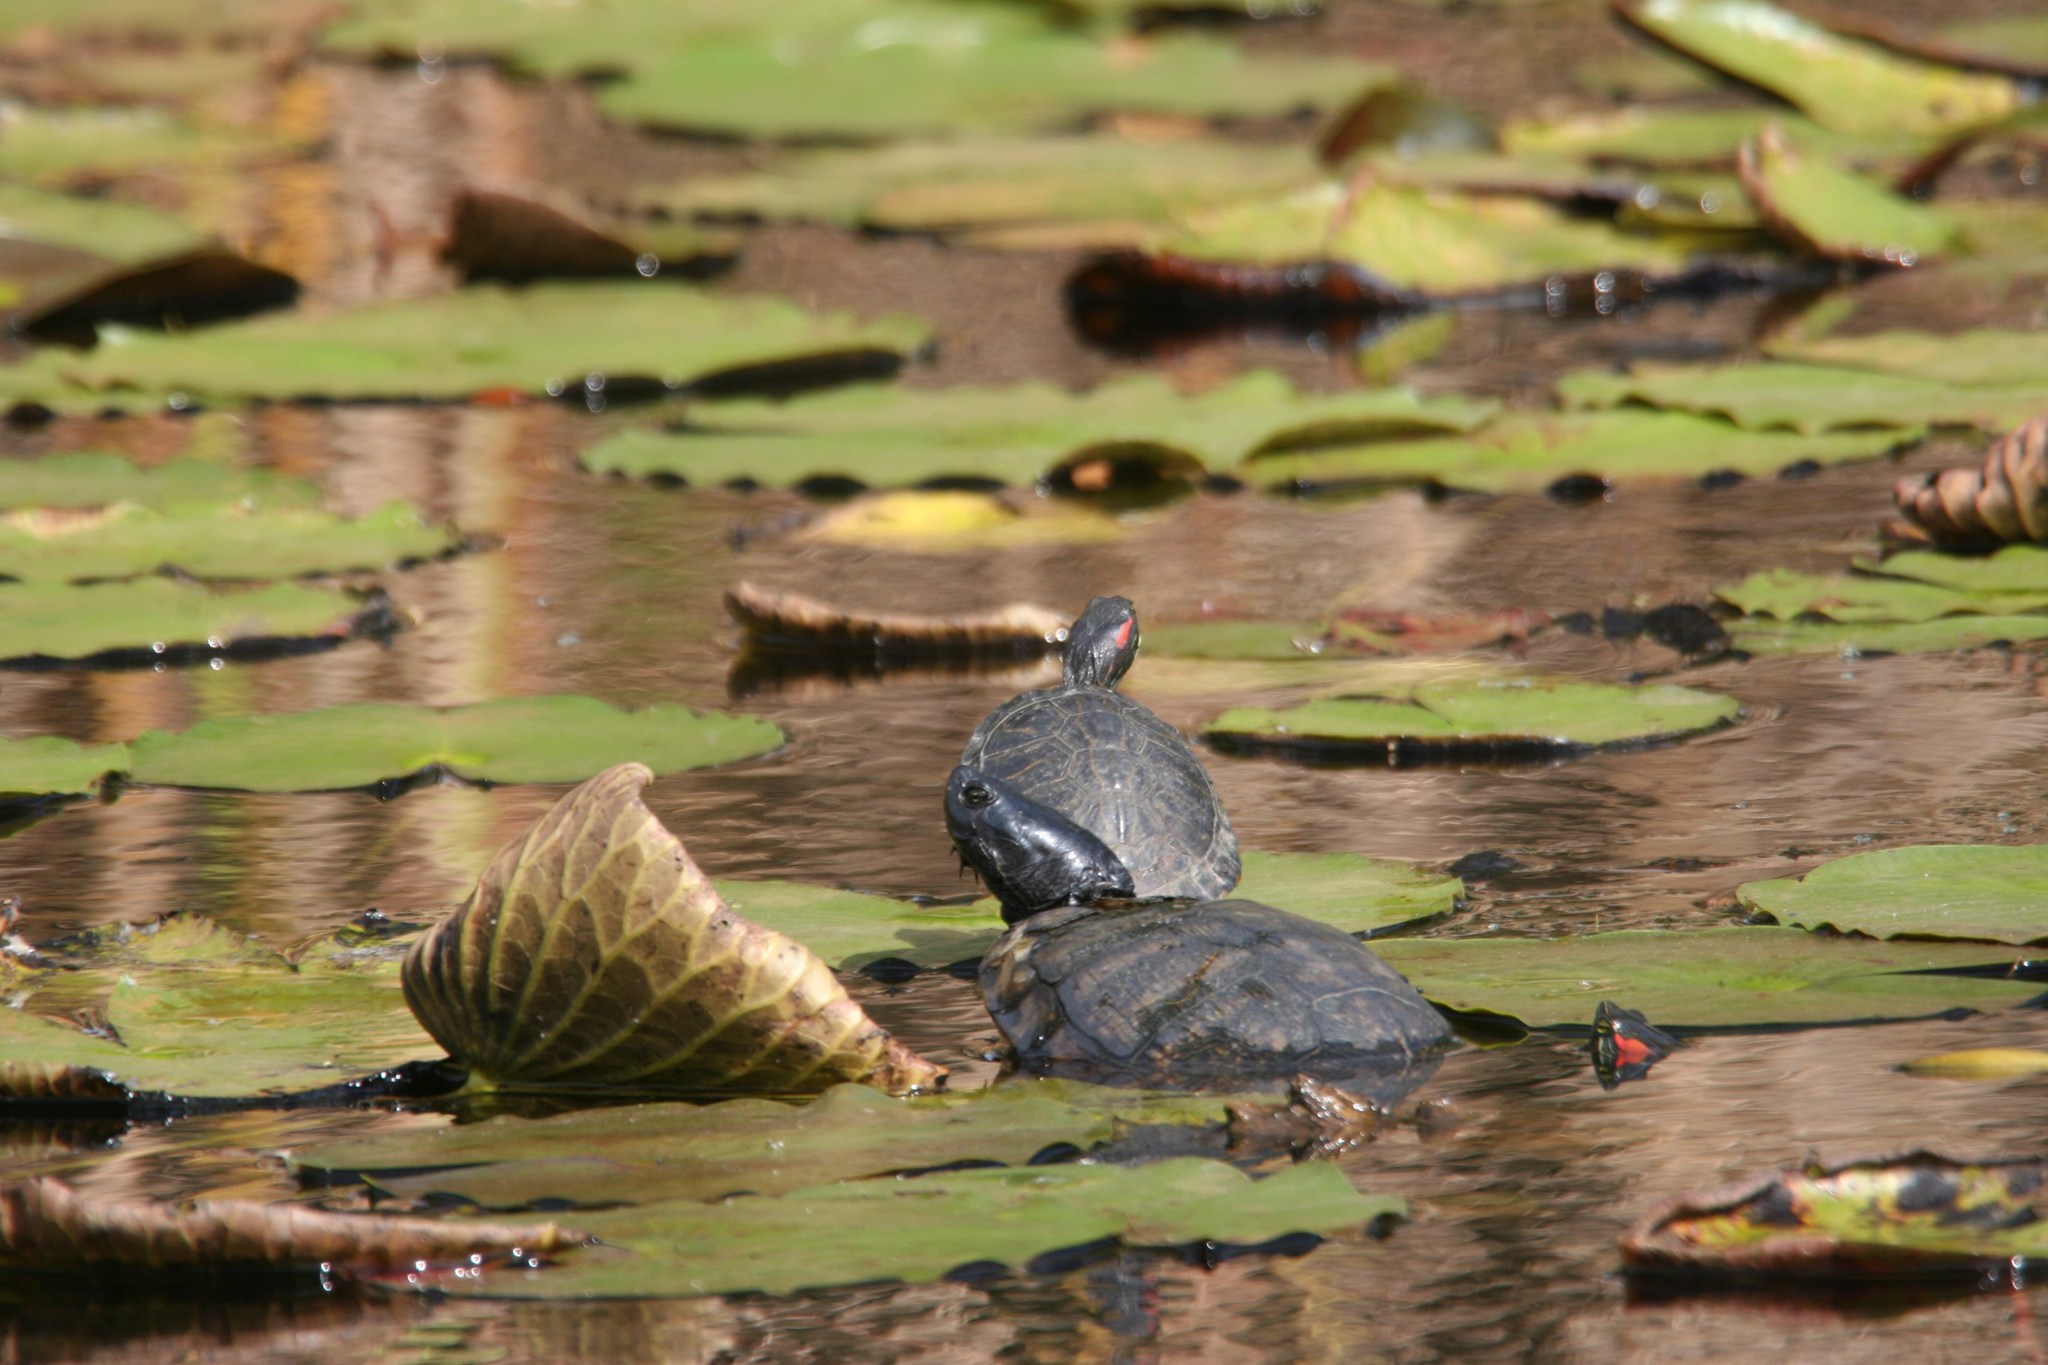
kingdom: Animalia
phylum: Chordata
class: Testudines
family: Emydidae
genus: Trachemys
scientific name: Trachemys scripta
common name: Slider
